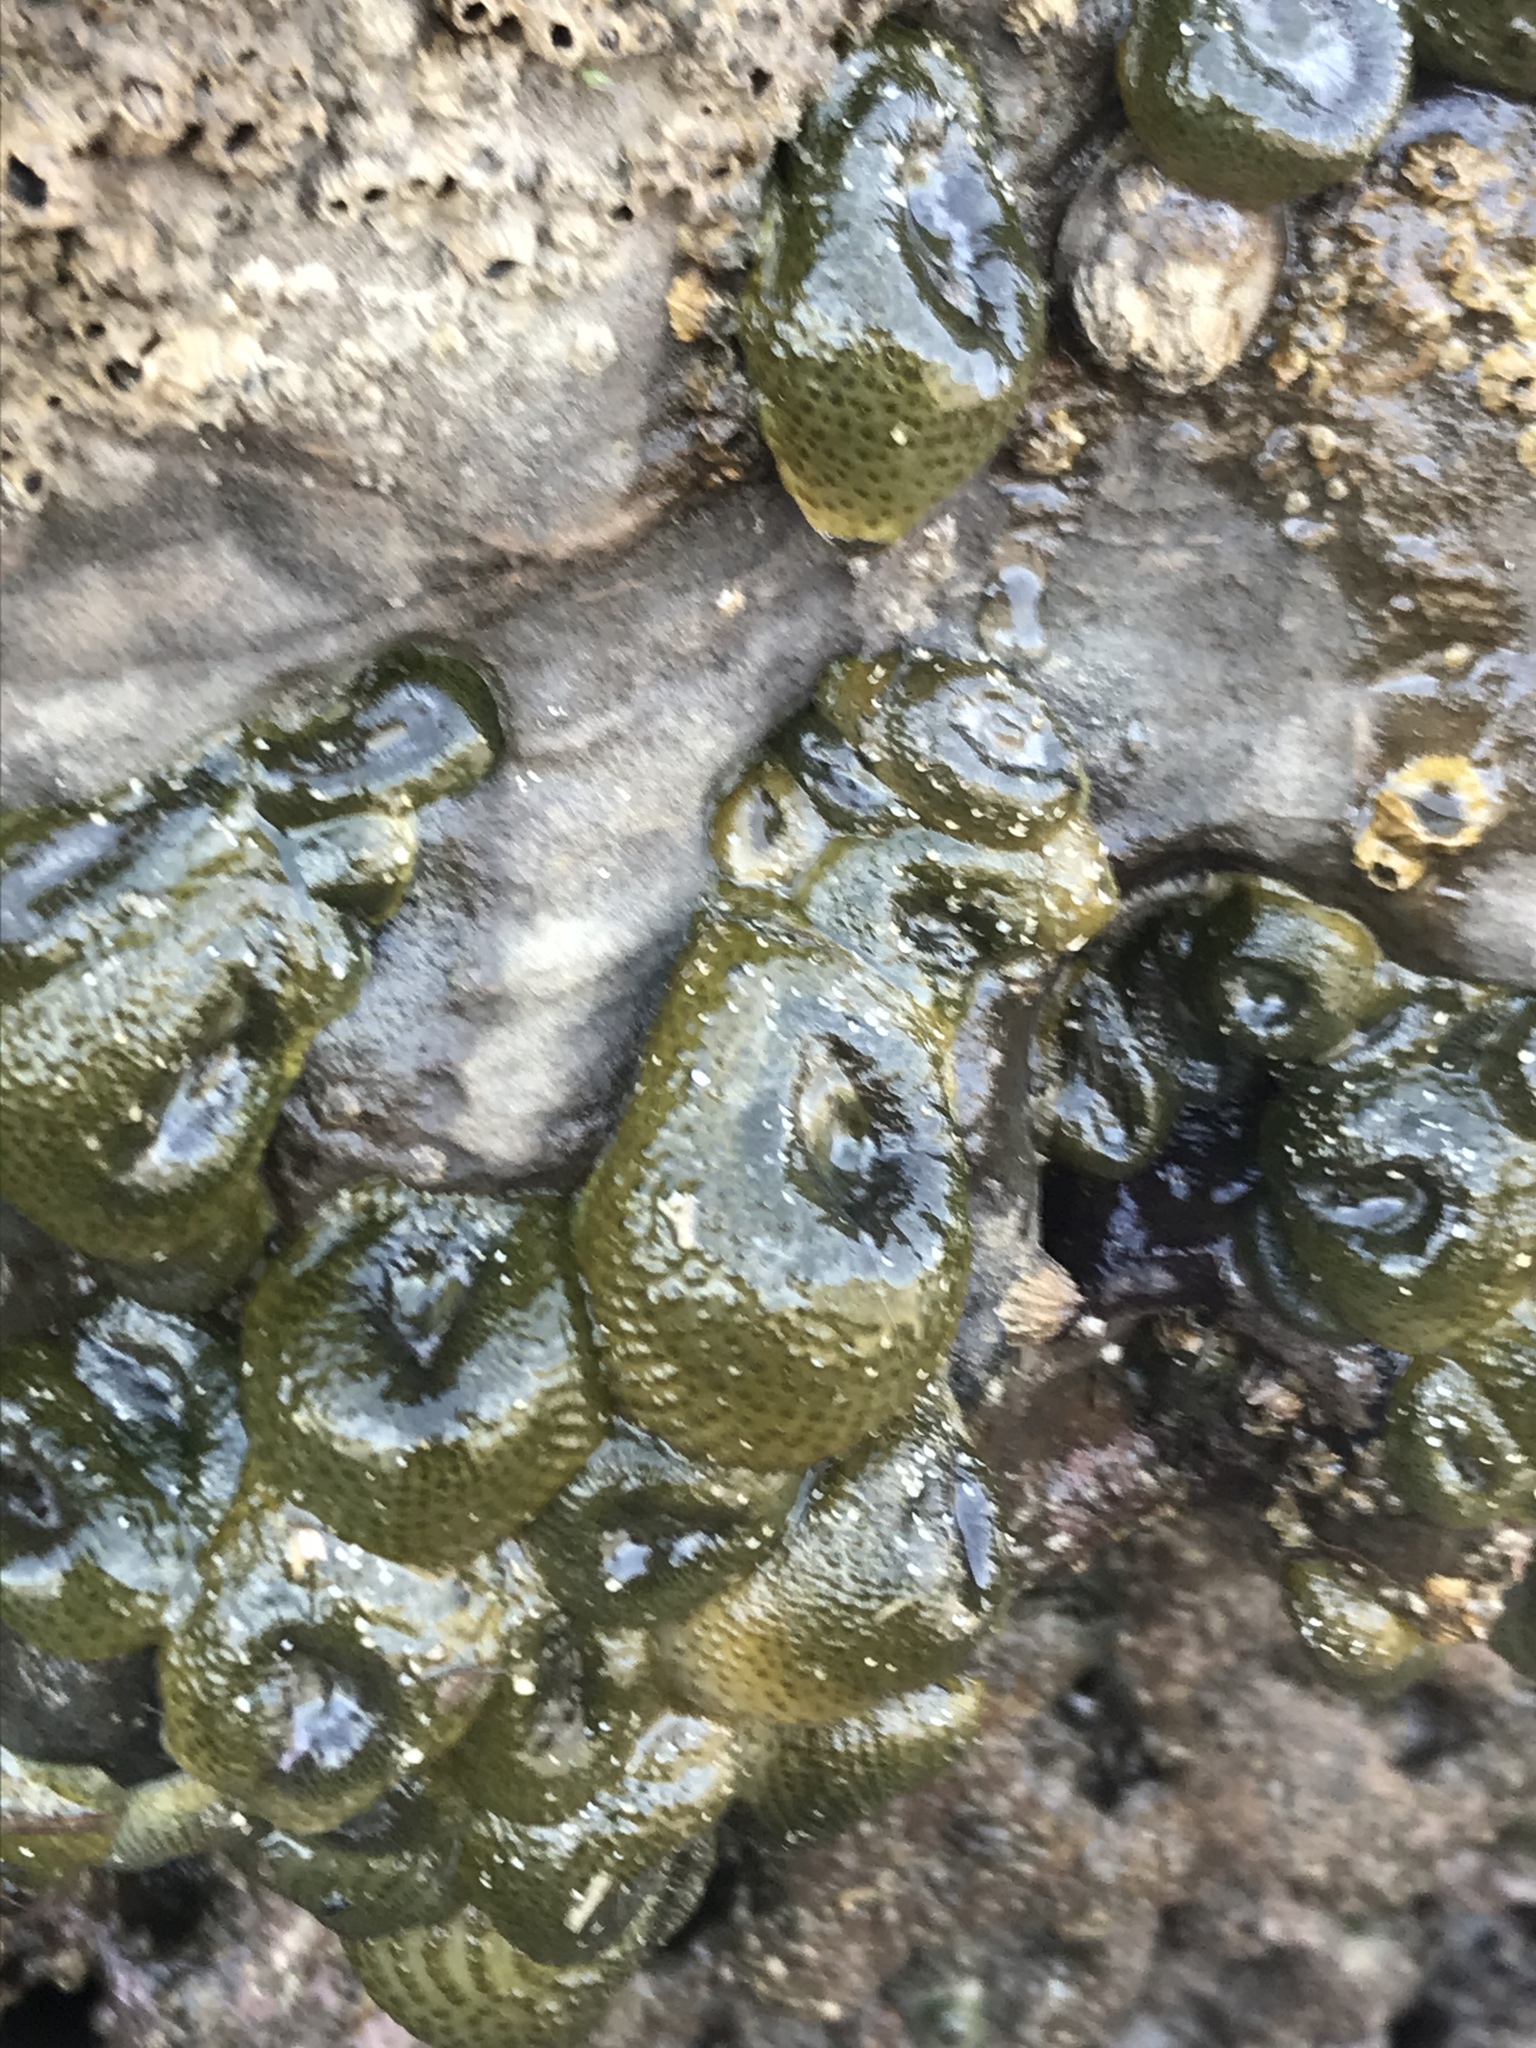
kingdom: Animalia
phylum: Cnidaria
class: Anthozoa
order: Actiniaria
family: Actiniidae
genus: Anthopleura
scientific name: Anthopleura elegantissima
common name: Clonal anemone
